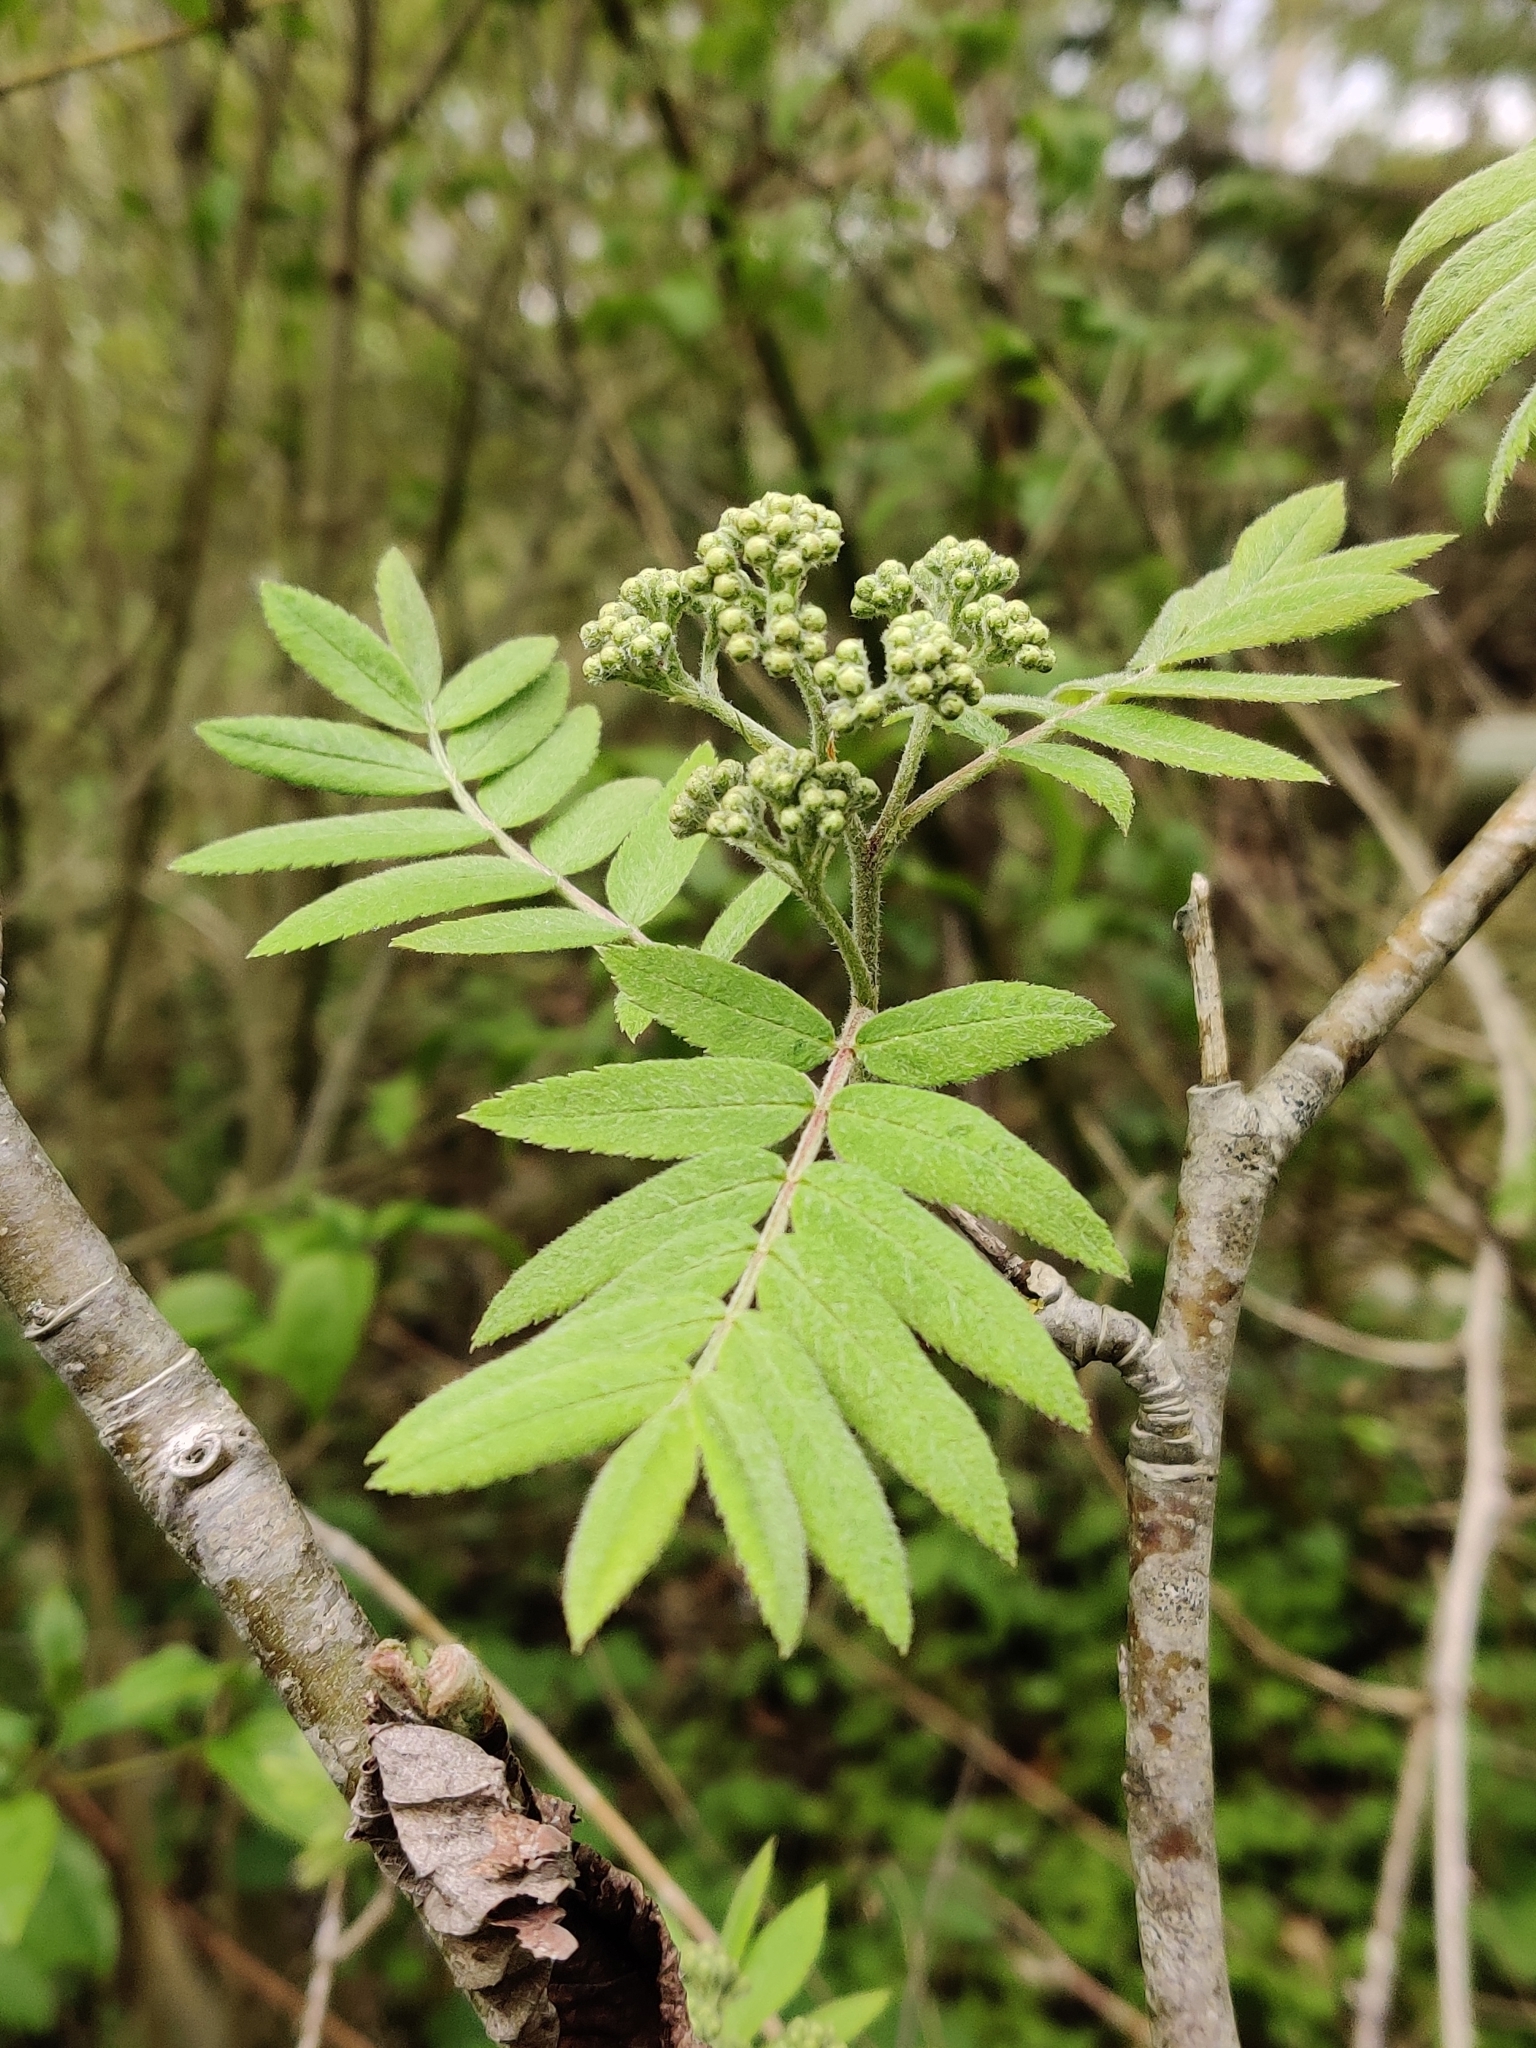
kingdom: Plantae
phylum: Tracheophyta
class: Magnoliopsida
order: Rosales
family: Rosaceae
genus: Sorbus
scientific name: Sorbus aucuparia
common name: Rowan
